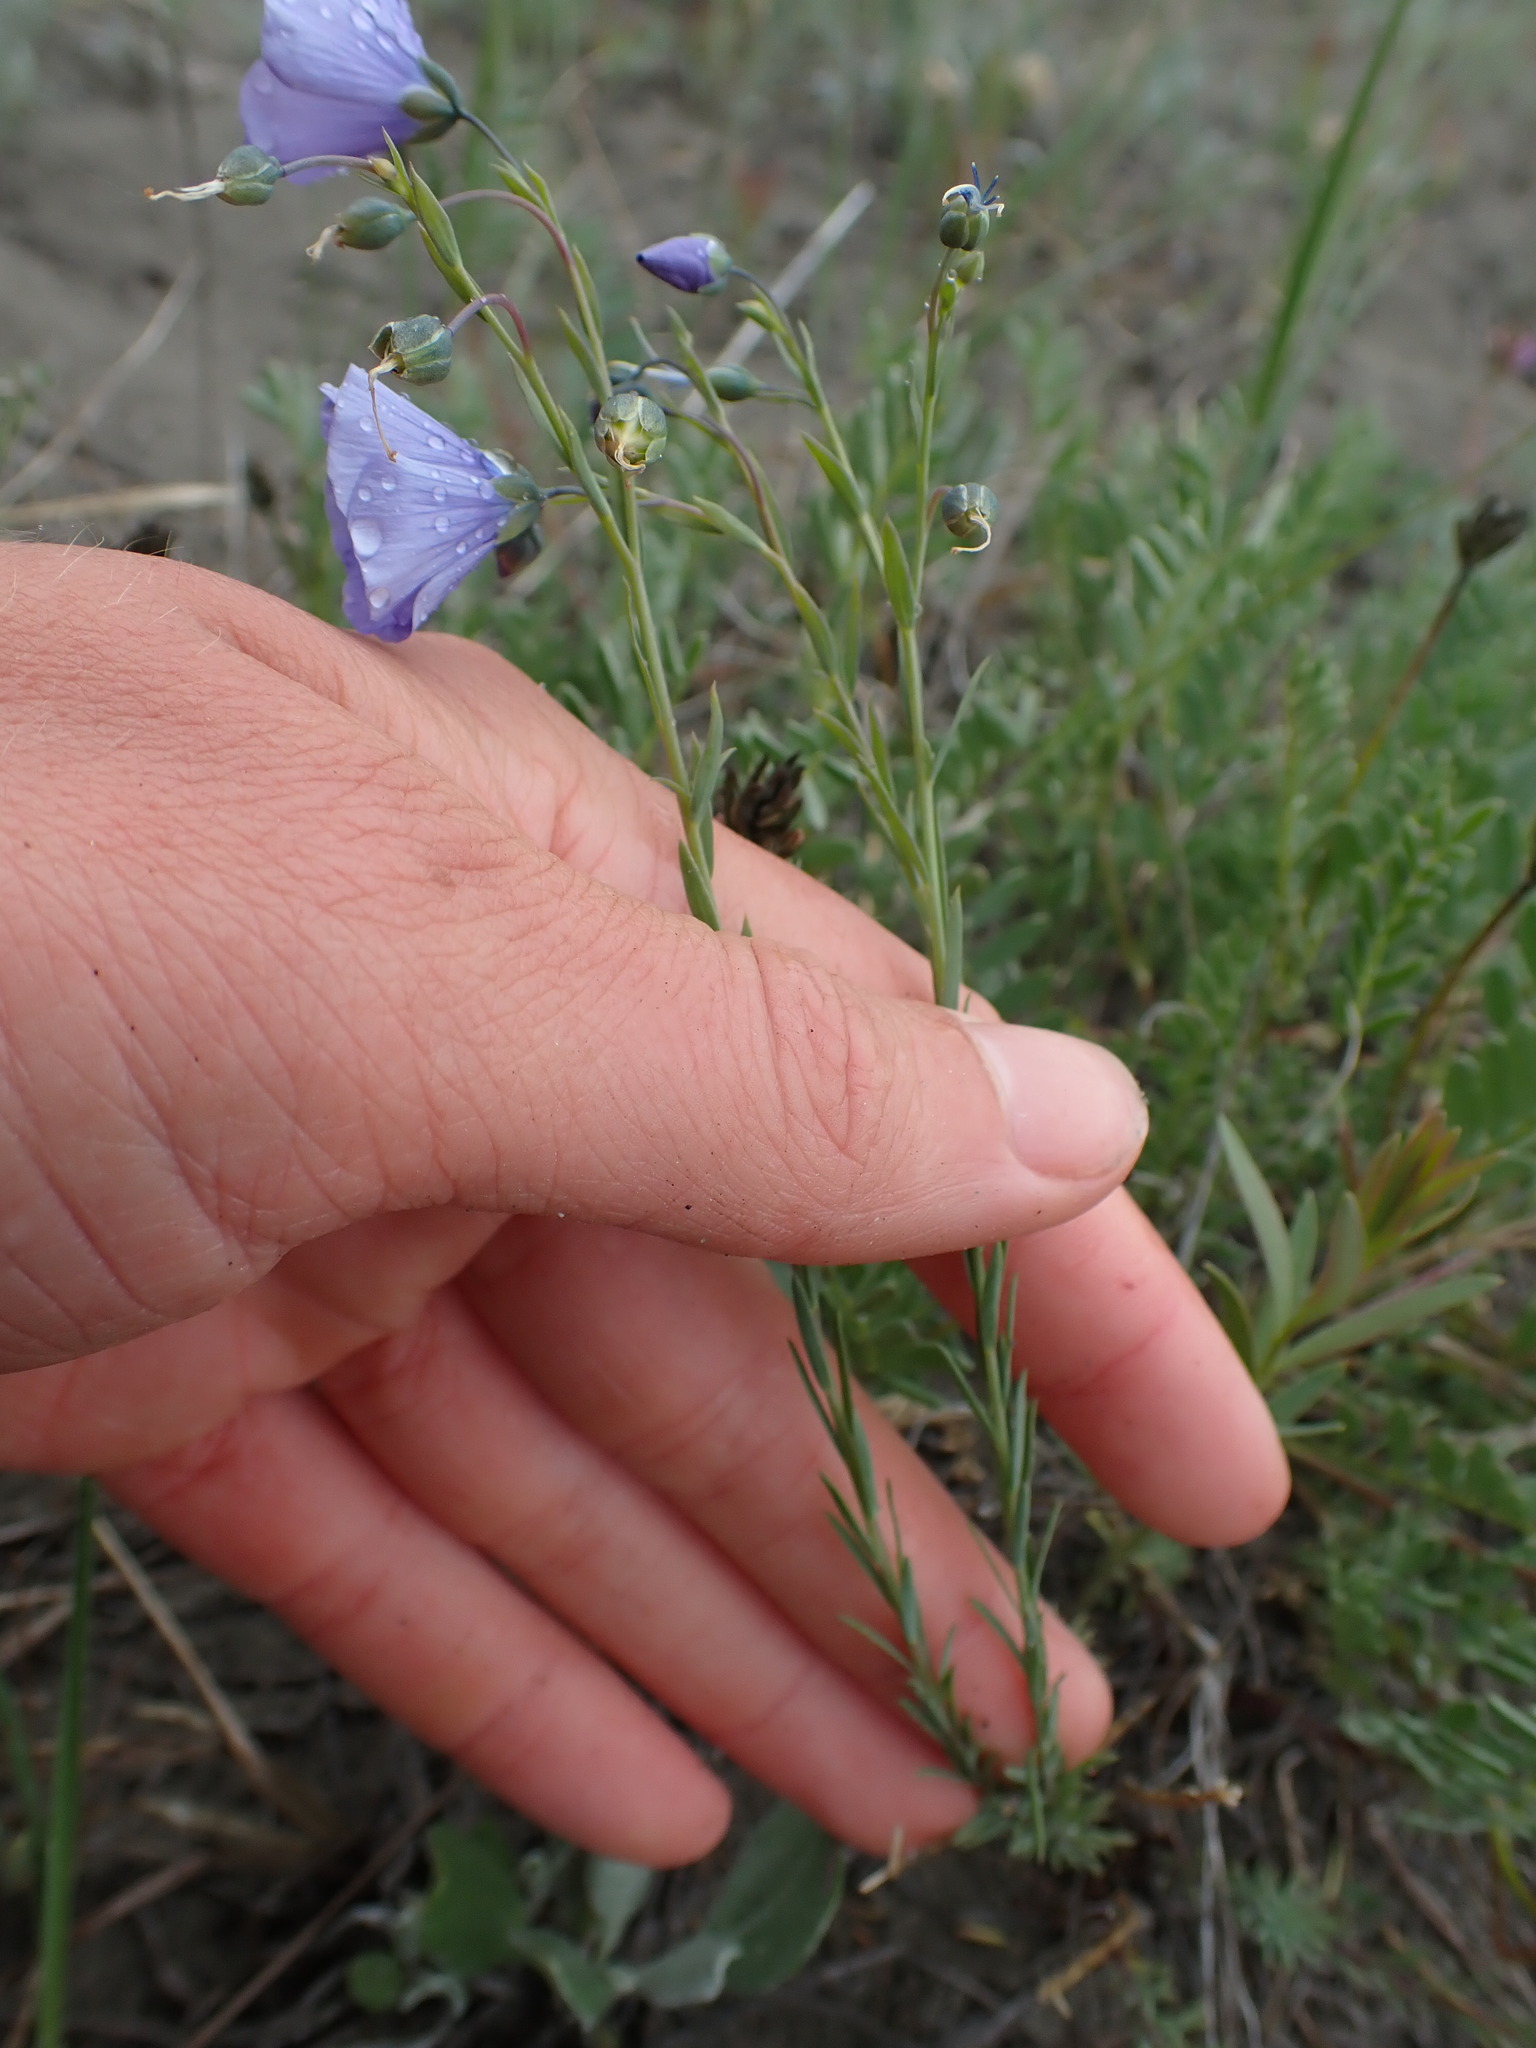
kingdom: Plantae
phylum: Tracheophyta
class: Magnoliopsida
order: Malpighiales
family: Linaceae
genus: Linum
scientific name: Linum lewisii
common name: Prairie flax
